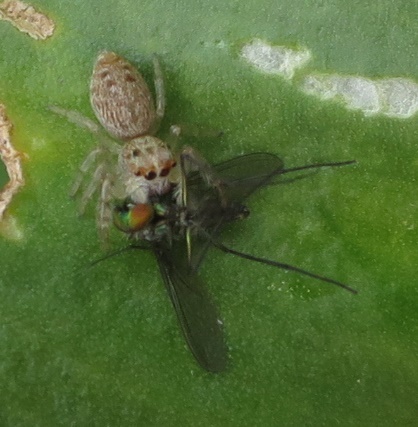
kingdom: Animalia
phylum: Arthropoda
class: Arachnida
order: Araneae
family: Salticidae
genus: Opisthoncus
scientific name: Opisthoncus polyphemus
